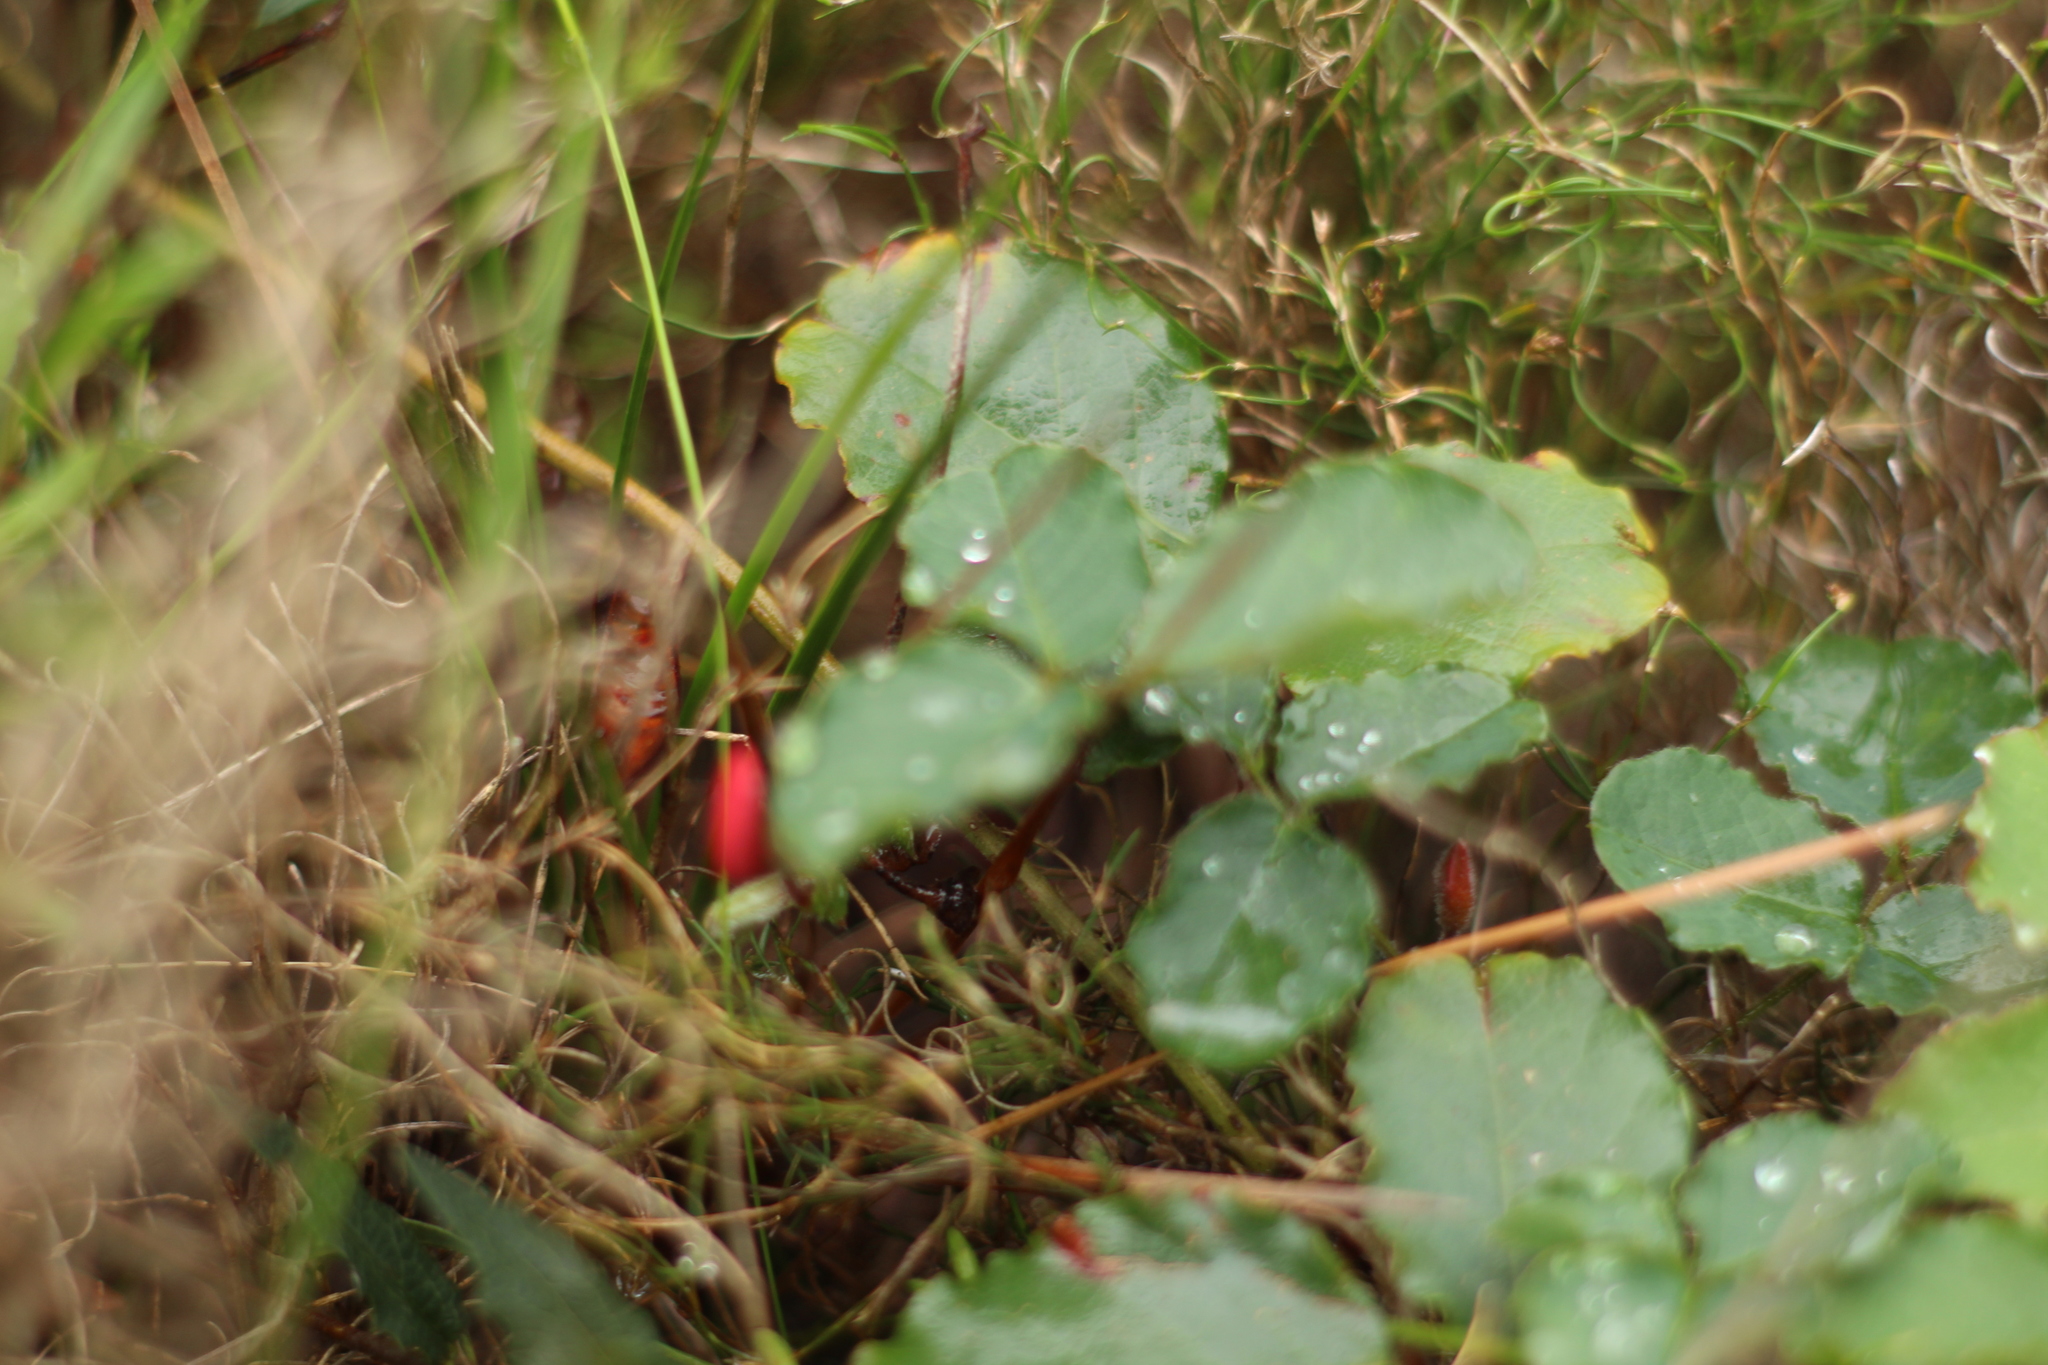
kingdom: Plantae
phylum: Tracheophyta
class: Magnoliopsida
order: Fabales
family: Fabaceae
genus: Kennedia
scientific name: Kennedia prostrata
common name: Running-postman
